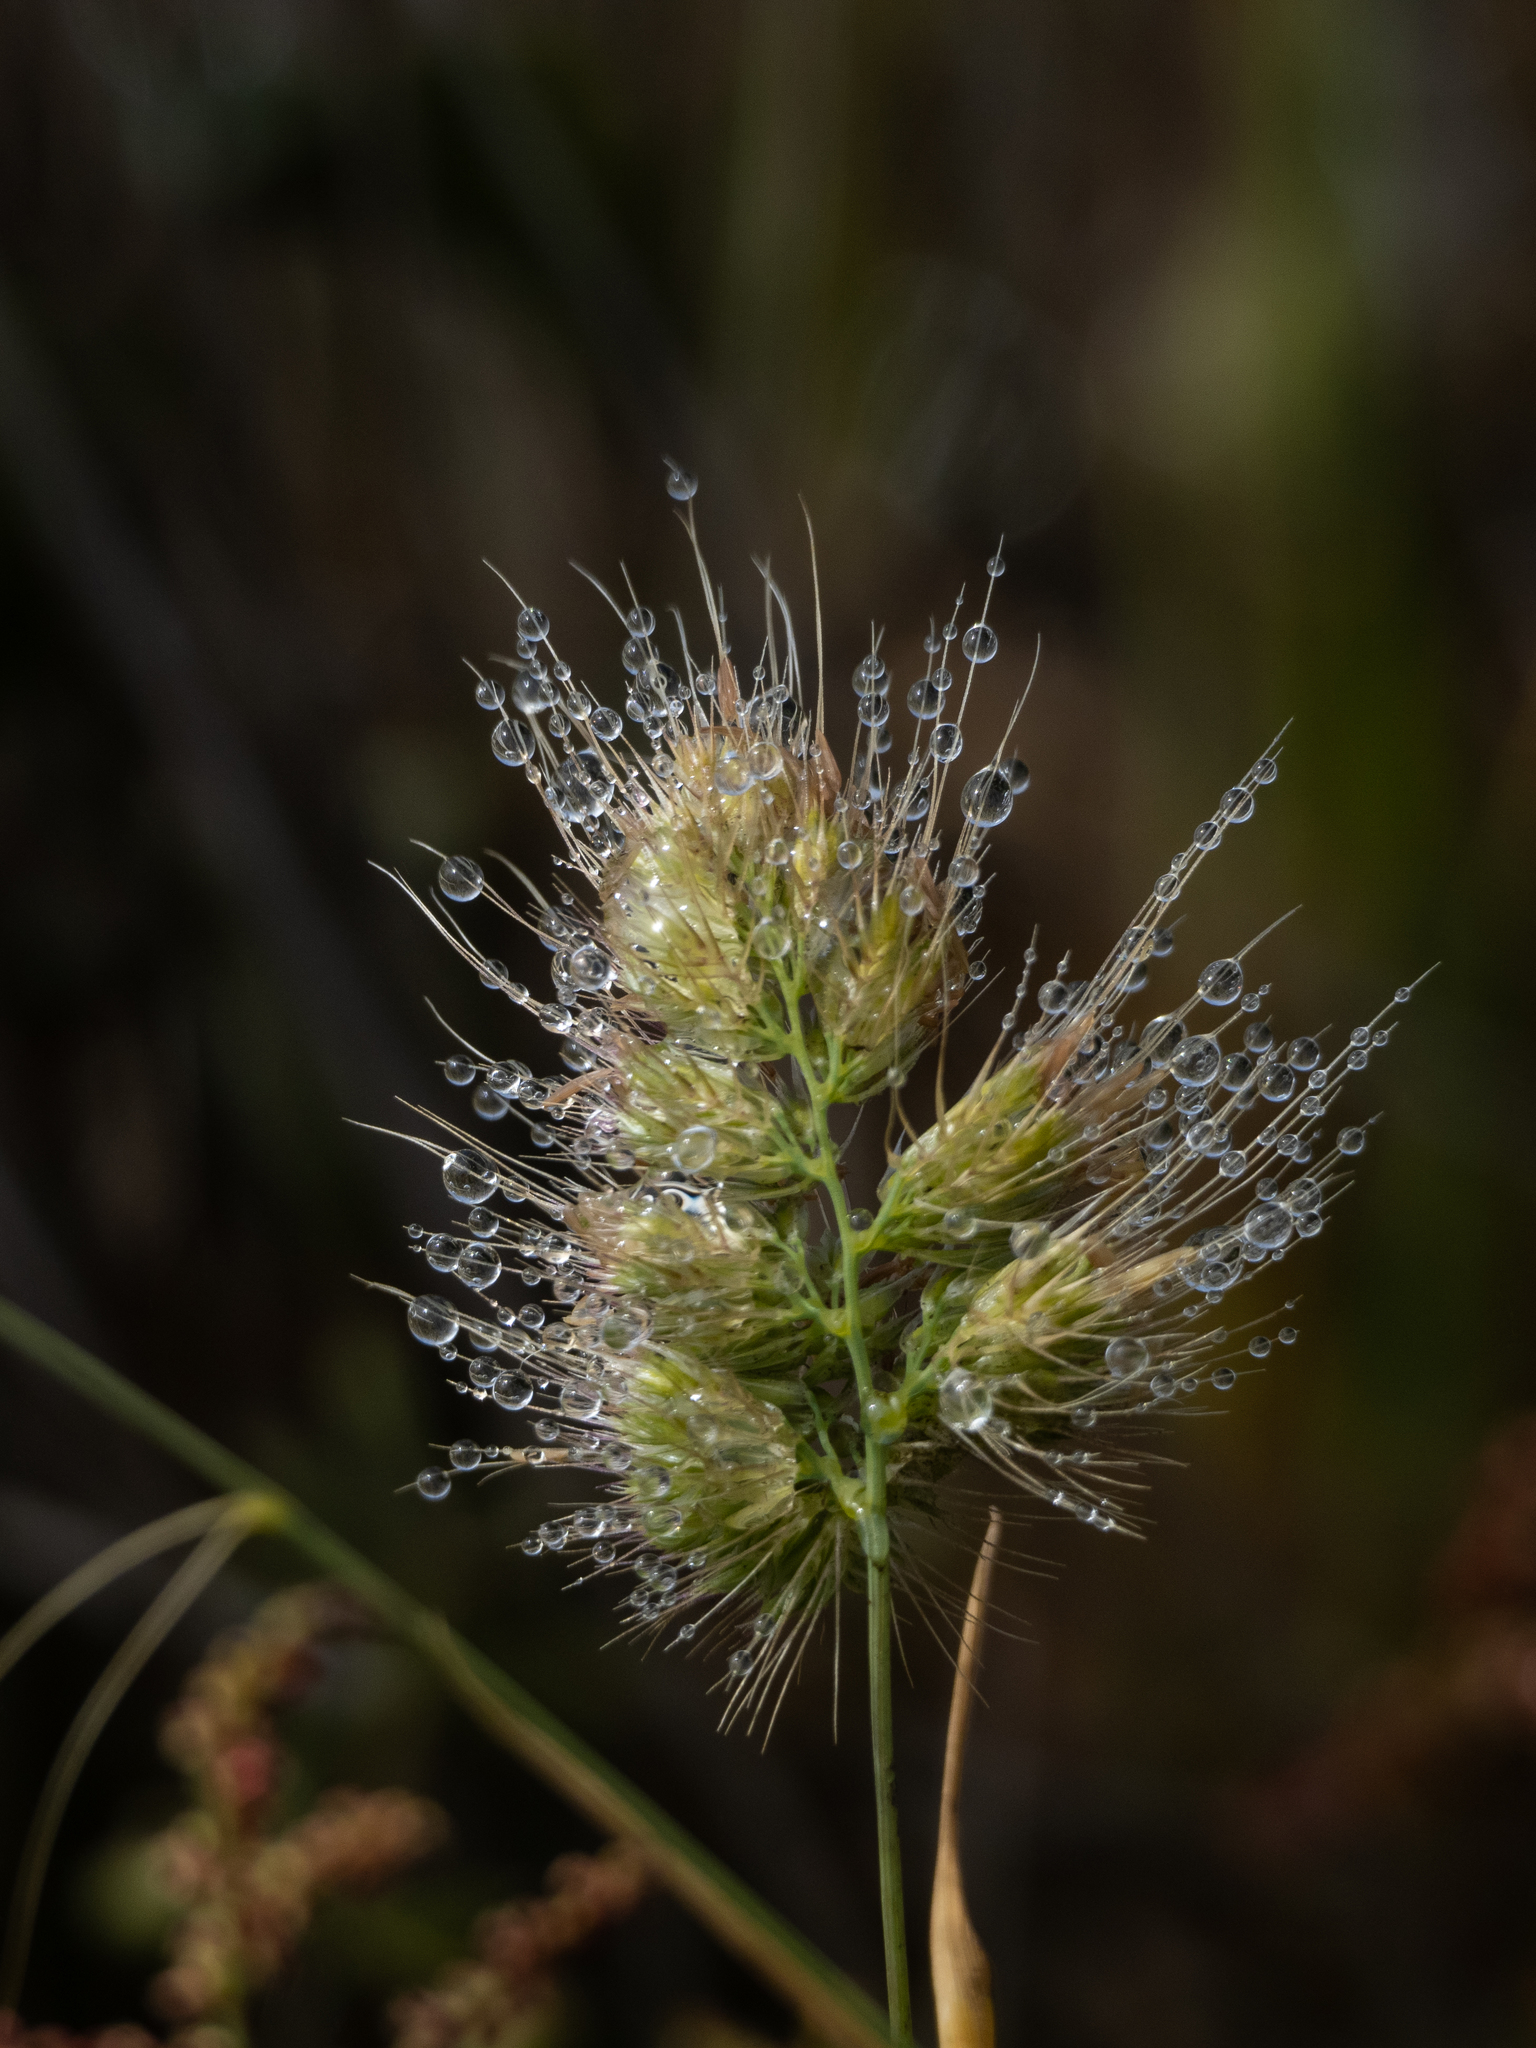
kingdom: Plantae
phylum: Tracheophyta
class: Liliopsida
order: Poales
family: Poaceae
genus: Cynosurus
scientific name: Cynosurus echinatus
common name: Rough dog's-tail
